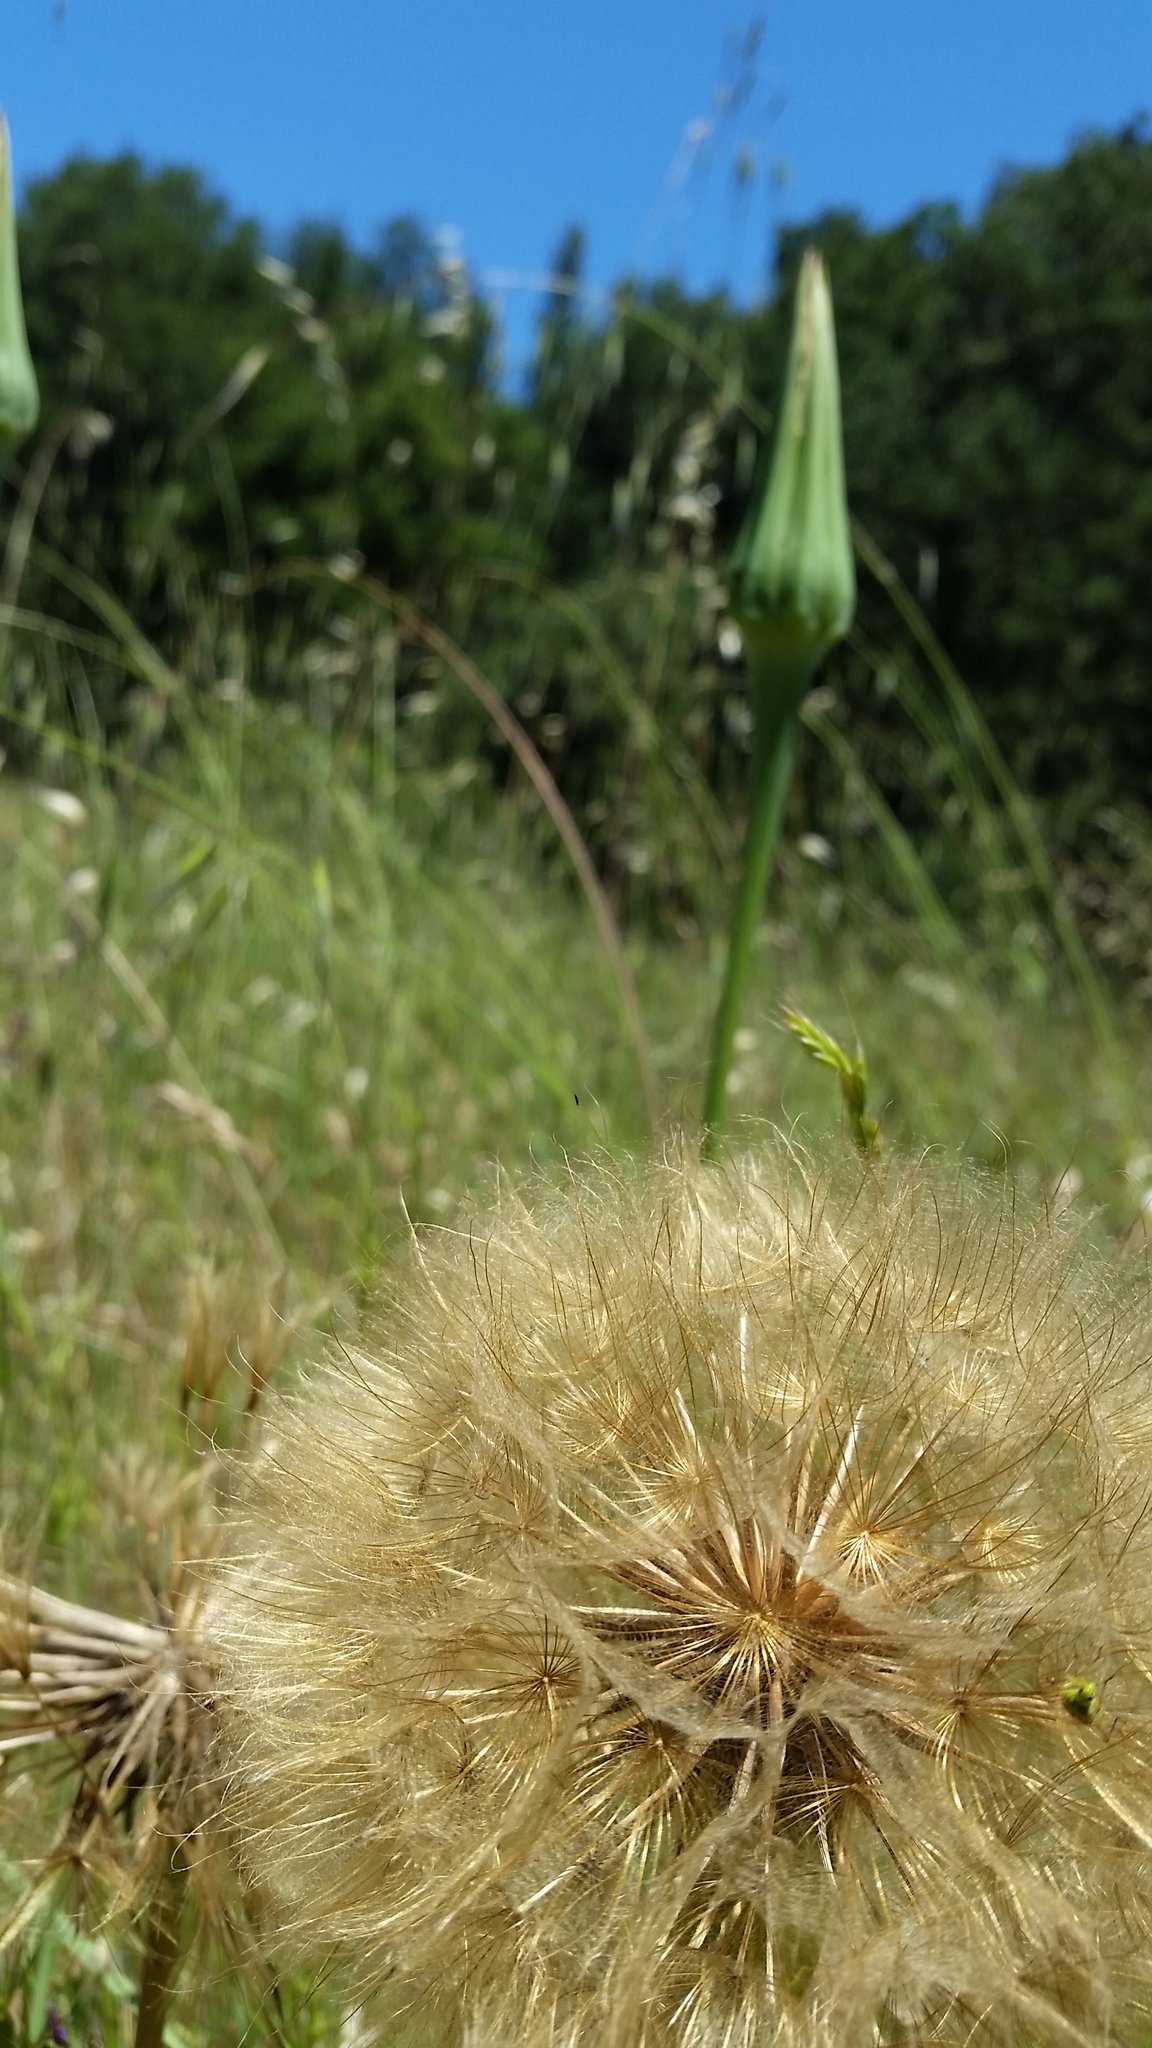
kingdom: Plantae
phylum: Tracheophyta
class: Magnoliopsida
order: Asterales
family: Asteraceae
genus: Tragopogon
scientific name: Tragopogon porrifolius
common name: Salsify
